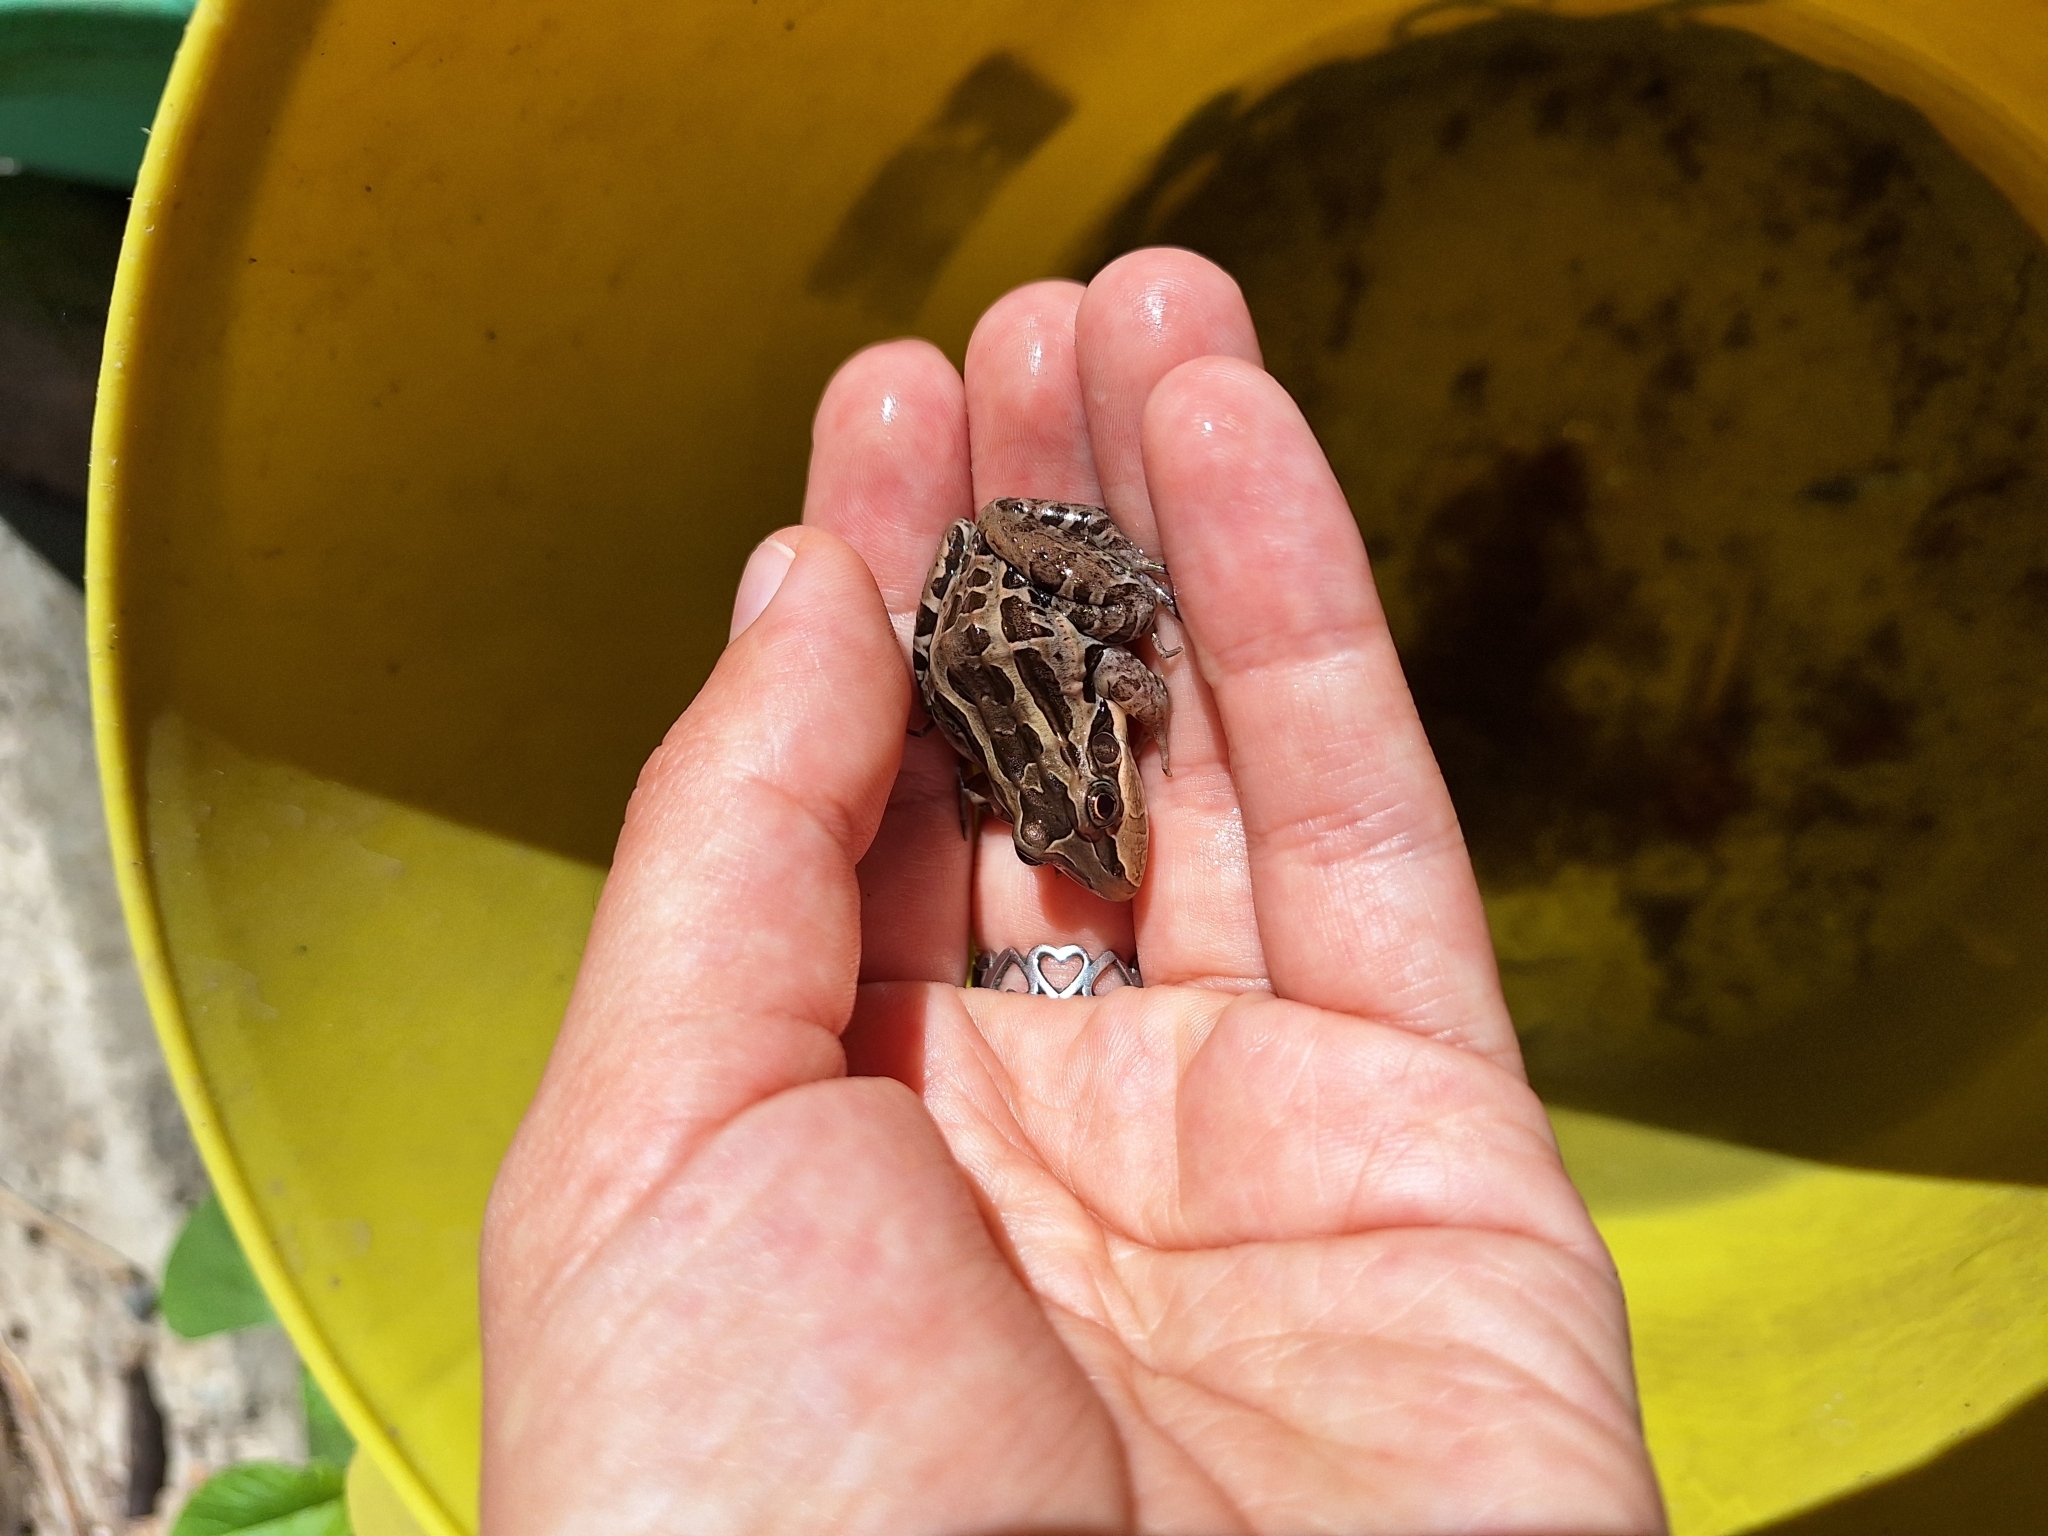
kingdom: Animalia
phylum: Chordata
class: Amphibia
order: Anura
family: Leptodactylidae
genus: Leptodactylus
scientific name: Leptodactylus luctator
